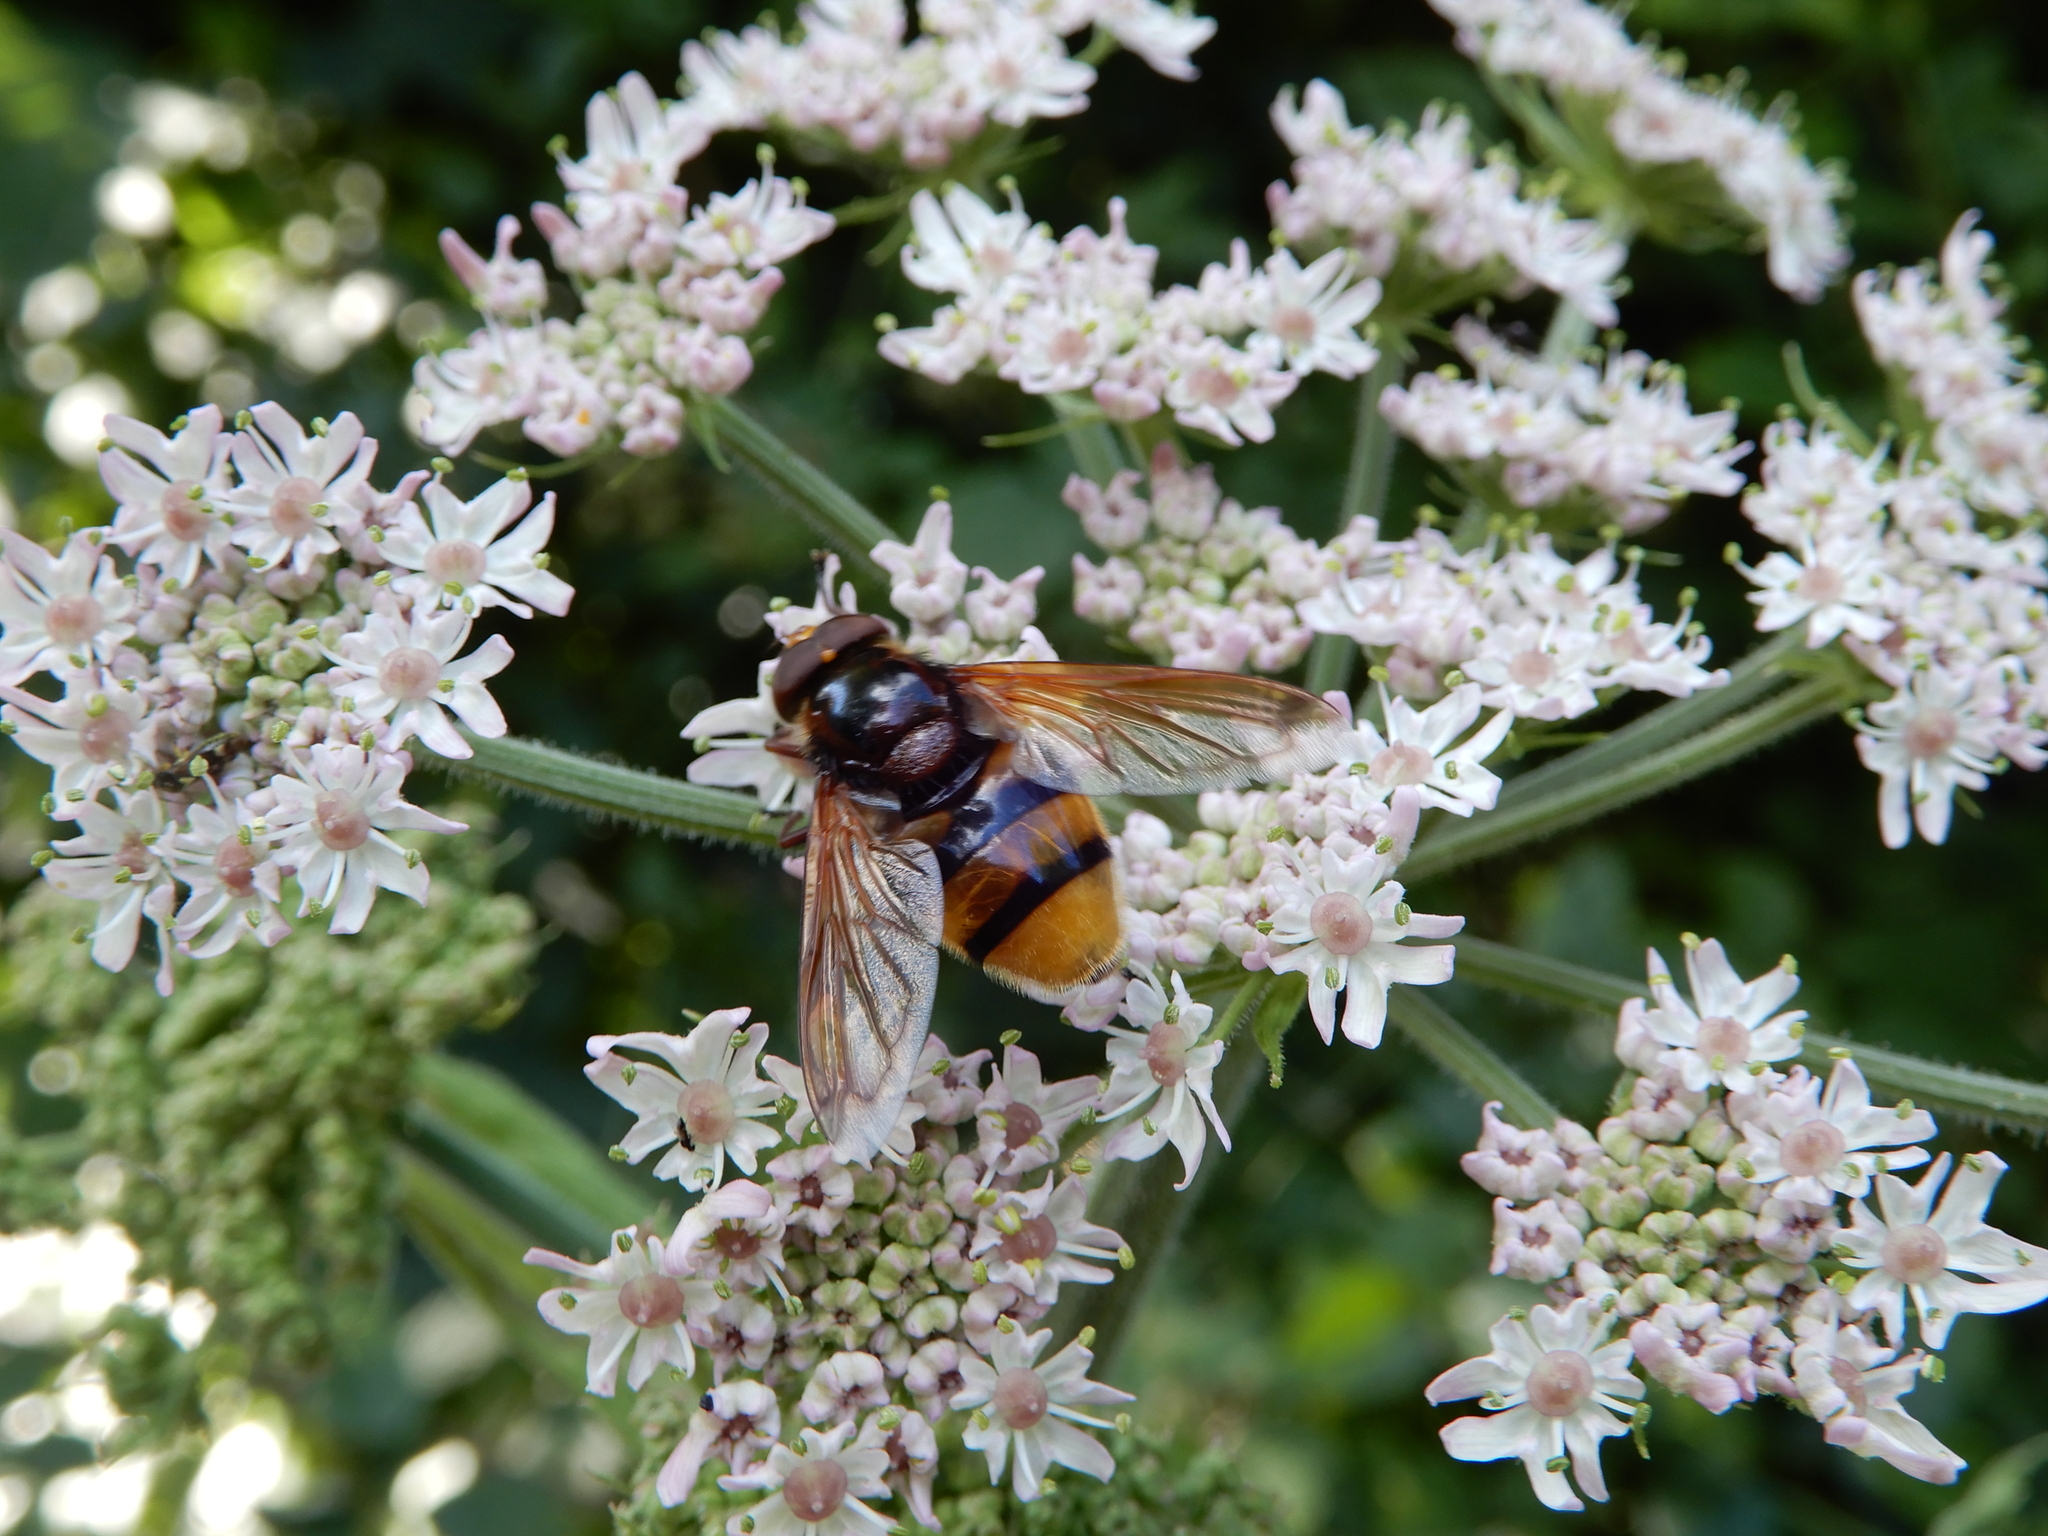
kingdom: Animalia
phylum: Arthropoda
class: Insecta
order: Diptera
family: Syrphidae
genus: Volucella
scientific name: Volucella zonaria
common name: Hornet hoverfly
